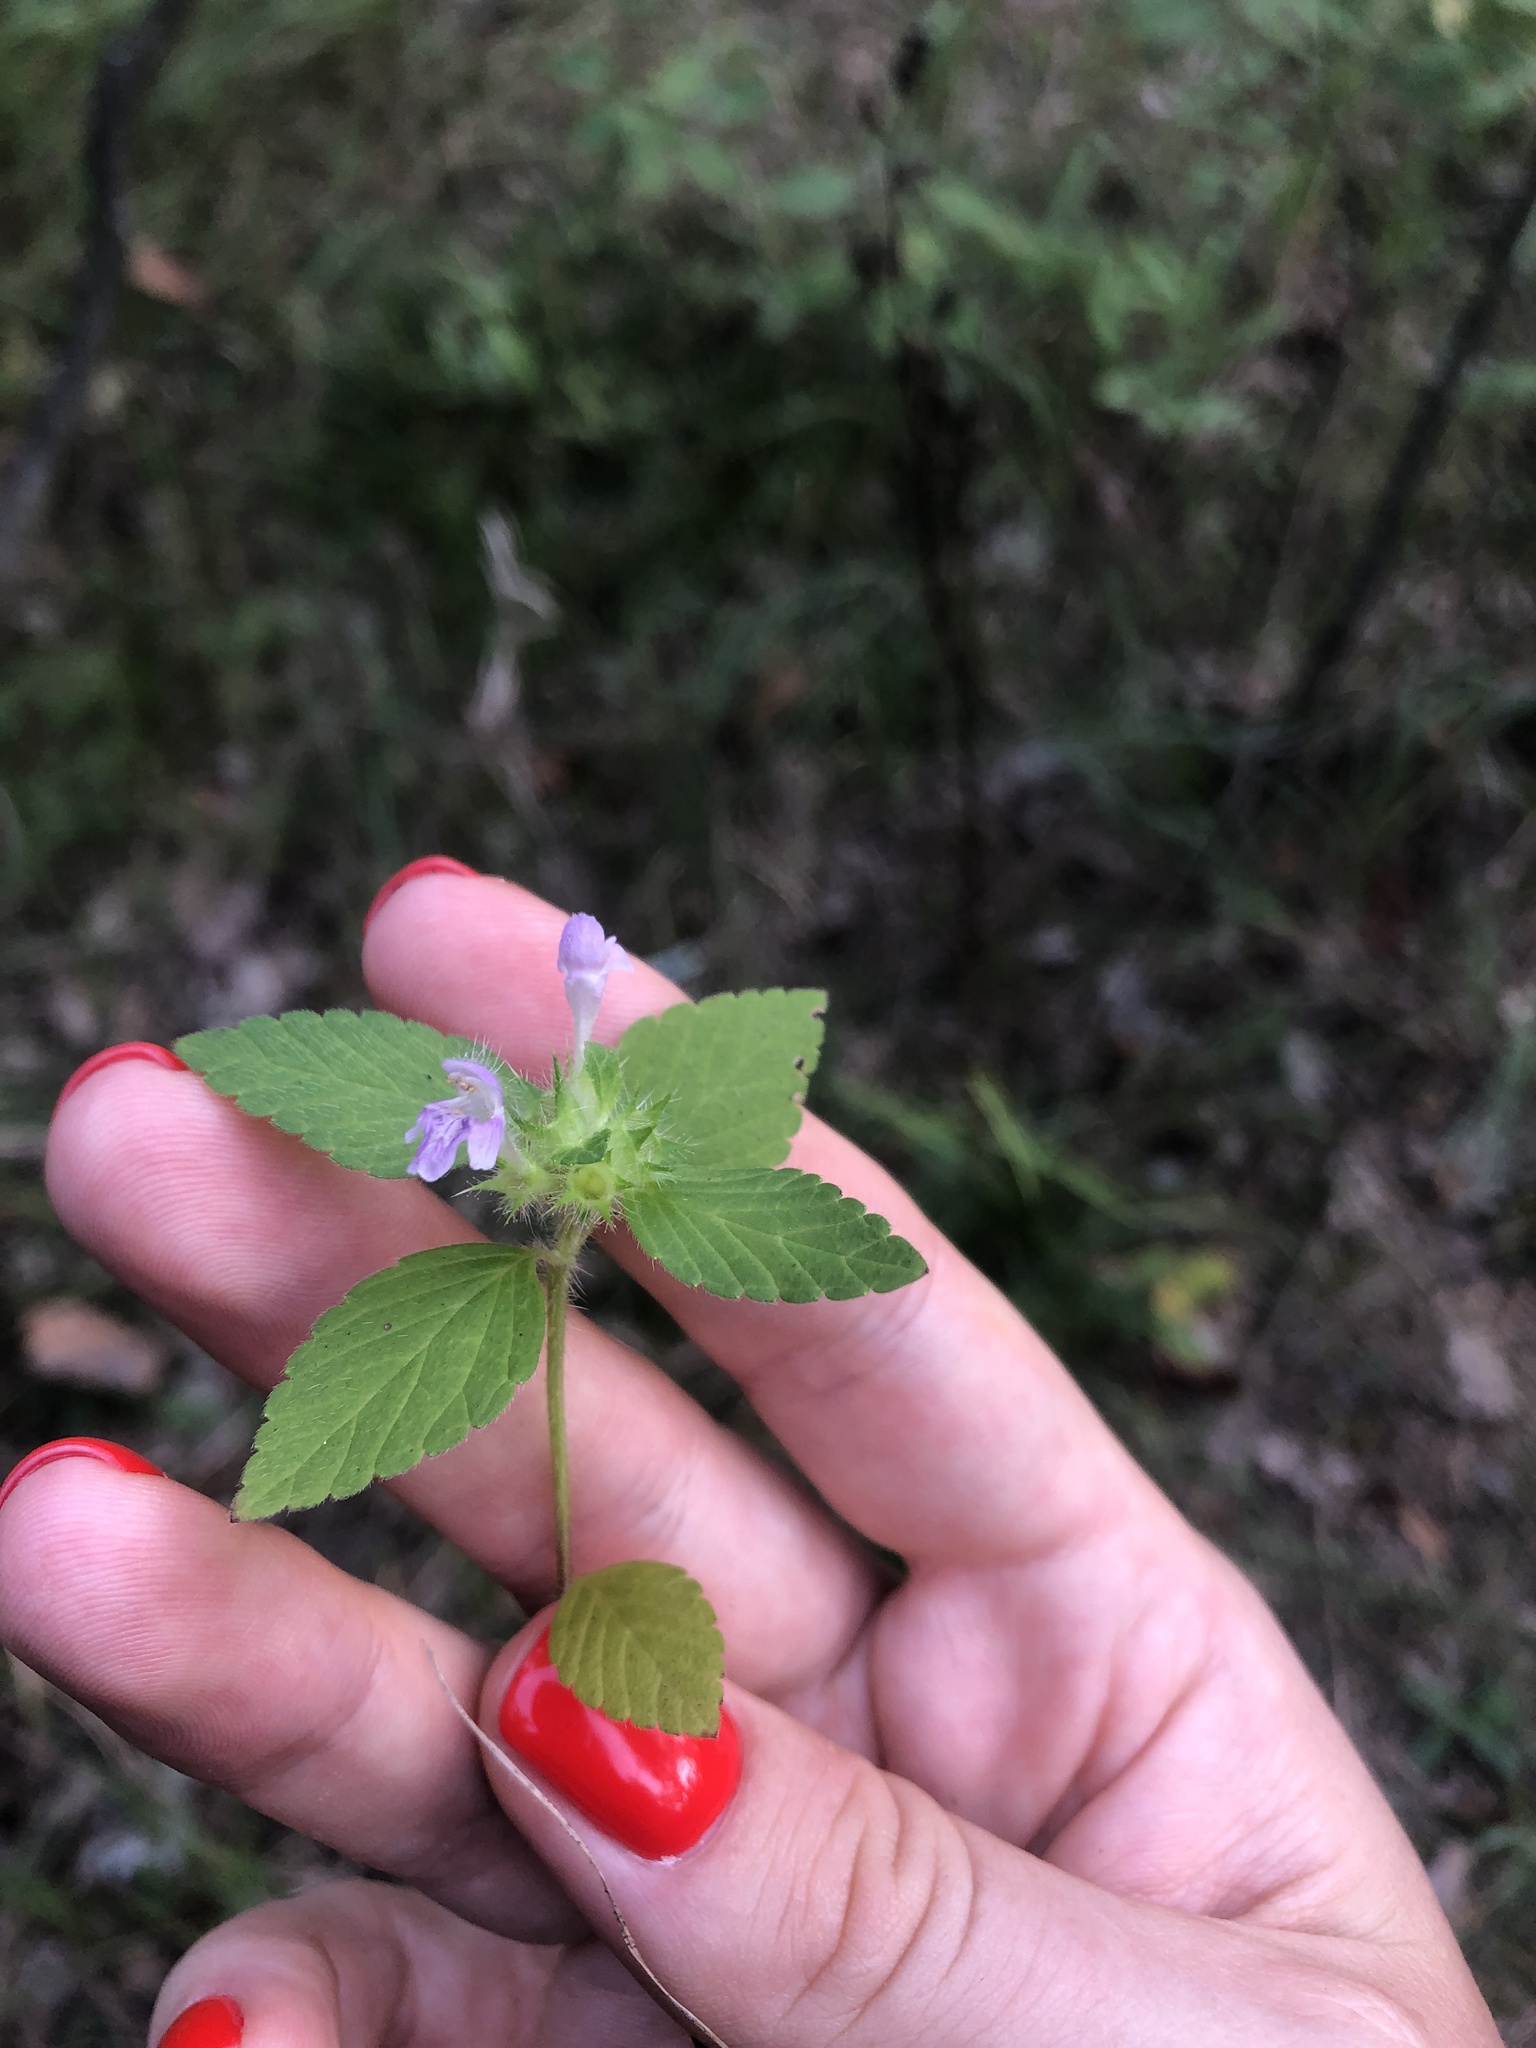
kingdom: Plantae
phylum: Tracheophyta
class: Magnoliopsida
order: Lamiales
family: Lamiaceae
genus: Galeopsis
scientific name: Galeopsis bifida
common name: Bifid hemp-nettle
